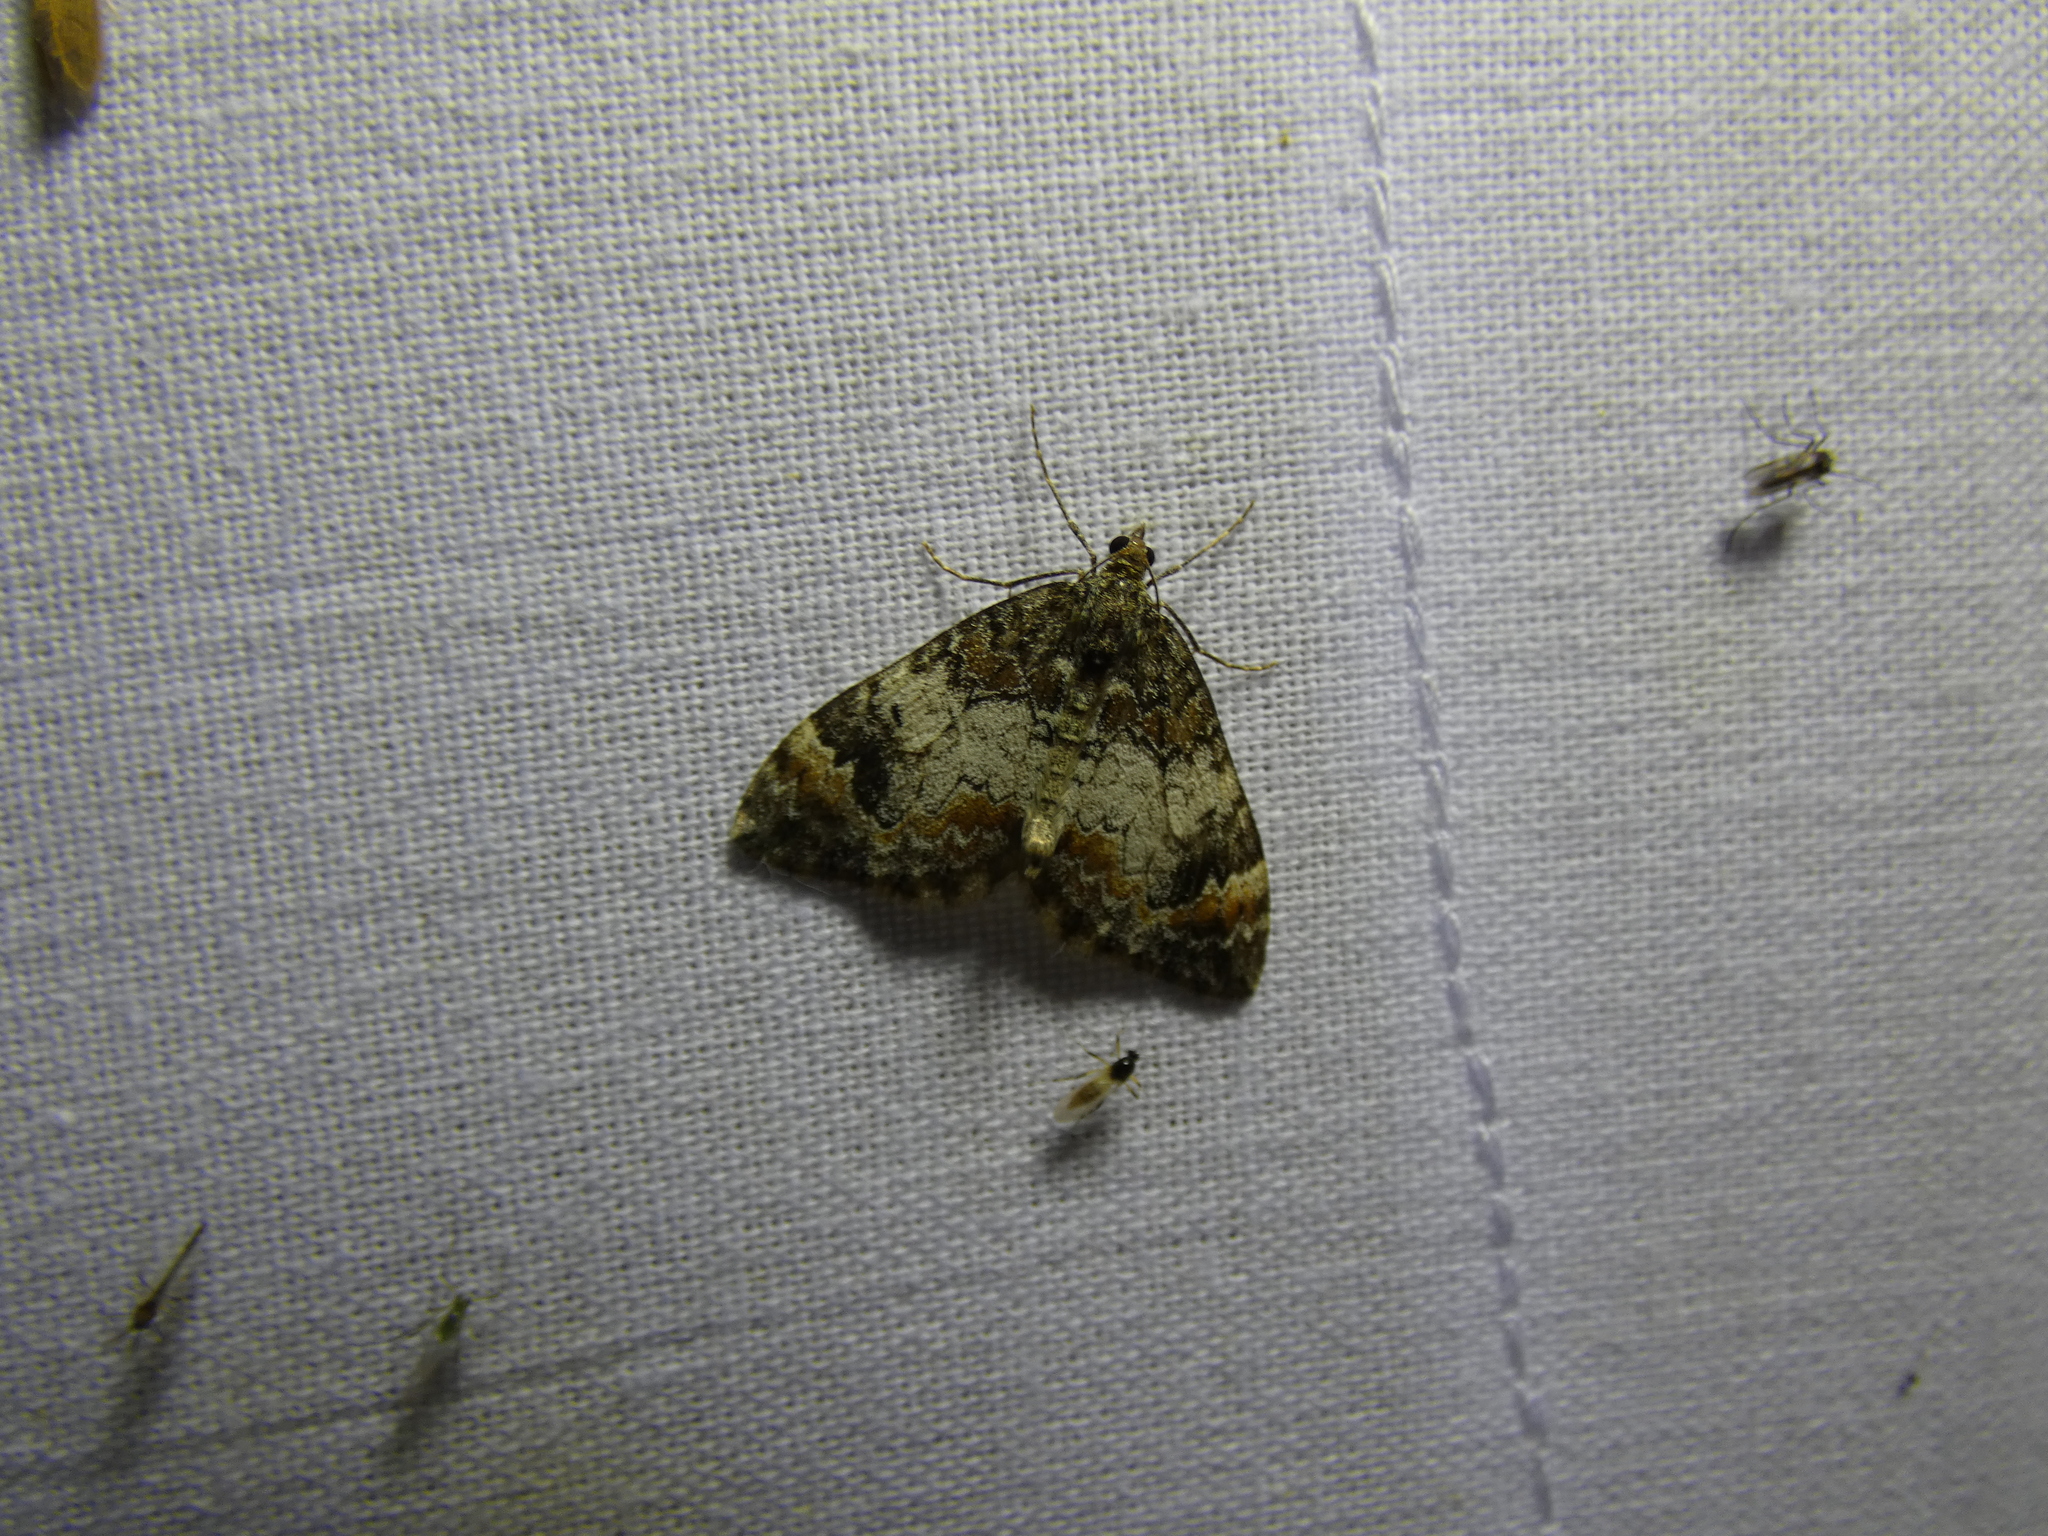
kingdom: Animalia
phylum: Arthropoda
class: Insecta
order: Lepidoptera
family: Geometridae
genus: Dysstroma
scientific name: Dysstroma citrata
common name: Dark marbled carpet
